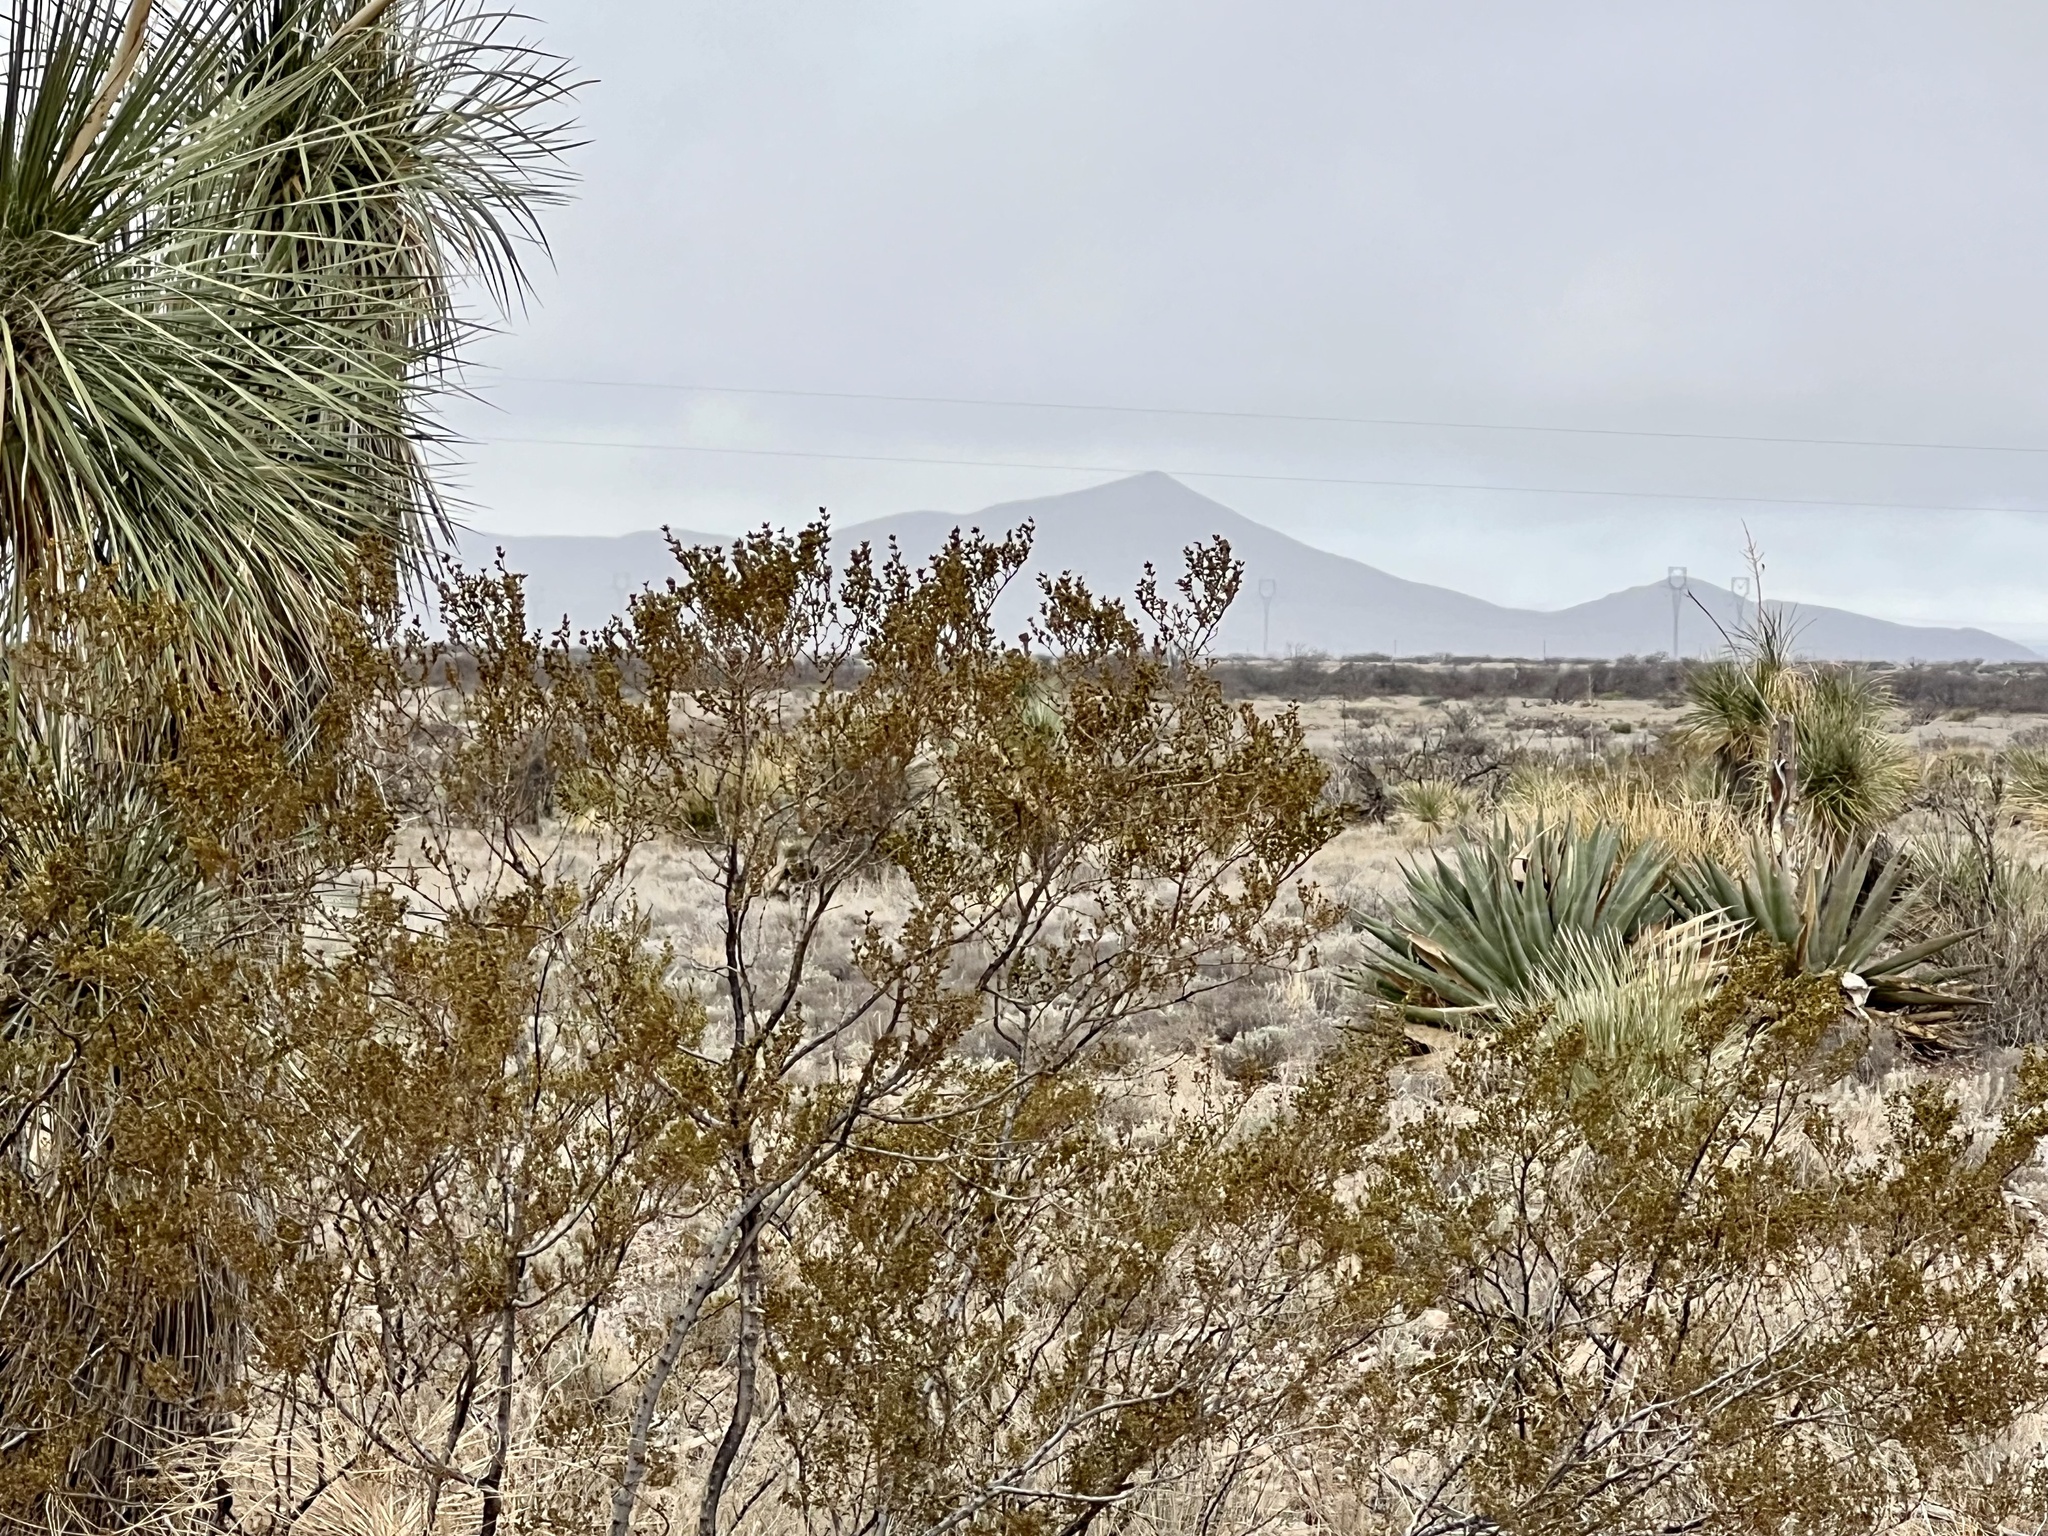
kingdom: Plantae
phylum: Tracheophyta
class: Magnoliopsida
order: Zygophyllales
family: Zygophyllaceae
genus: Larrea
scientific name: Larrea tridentata
